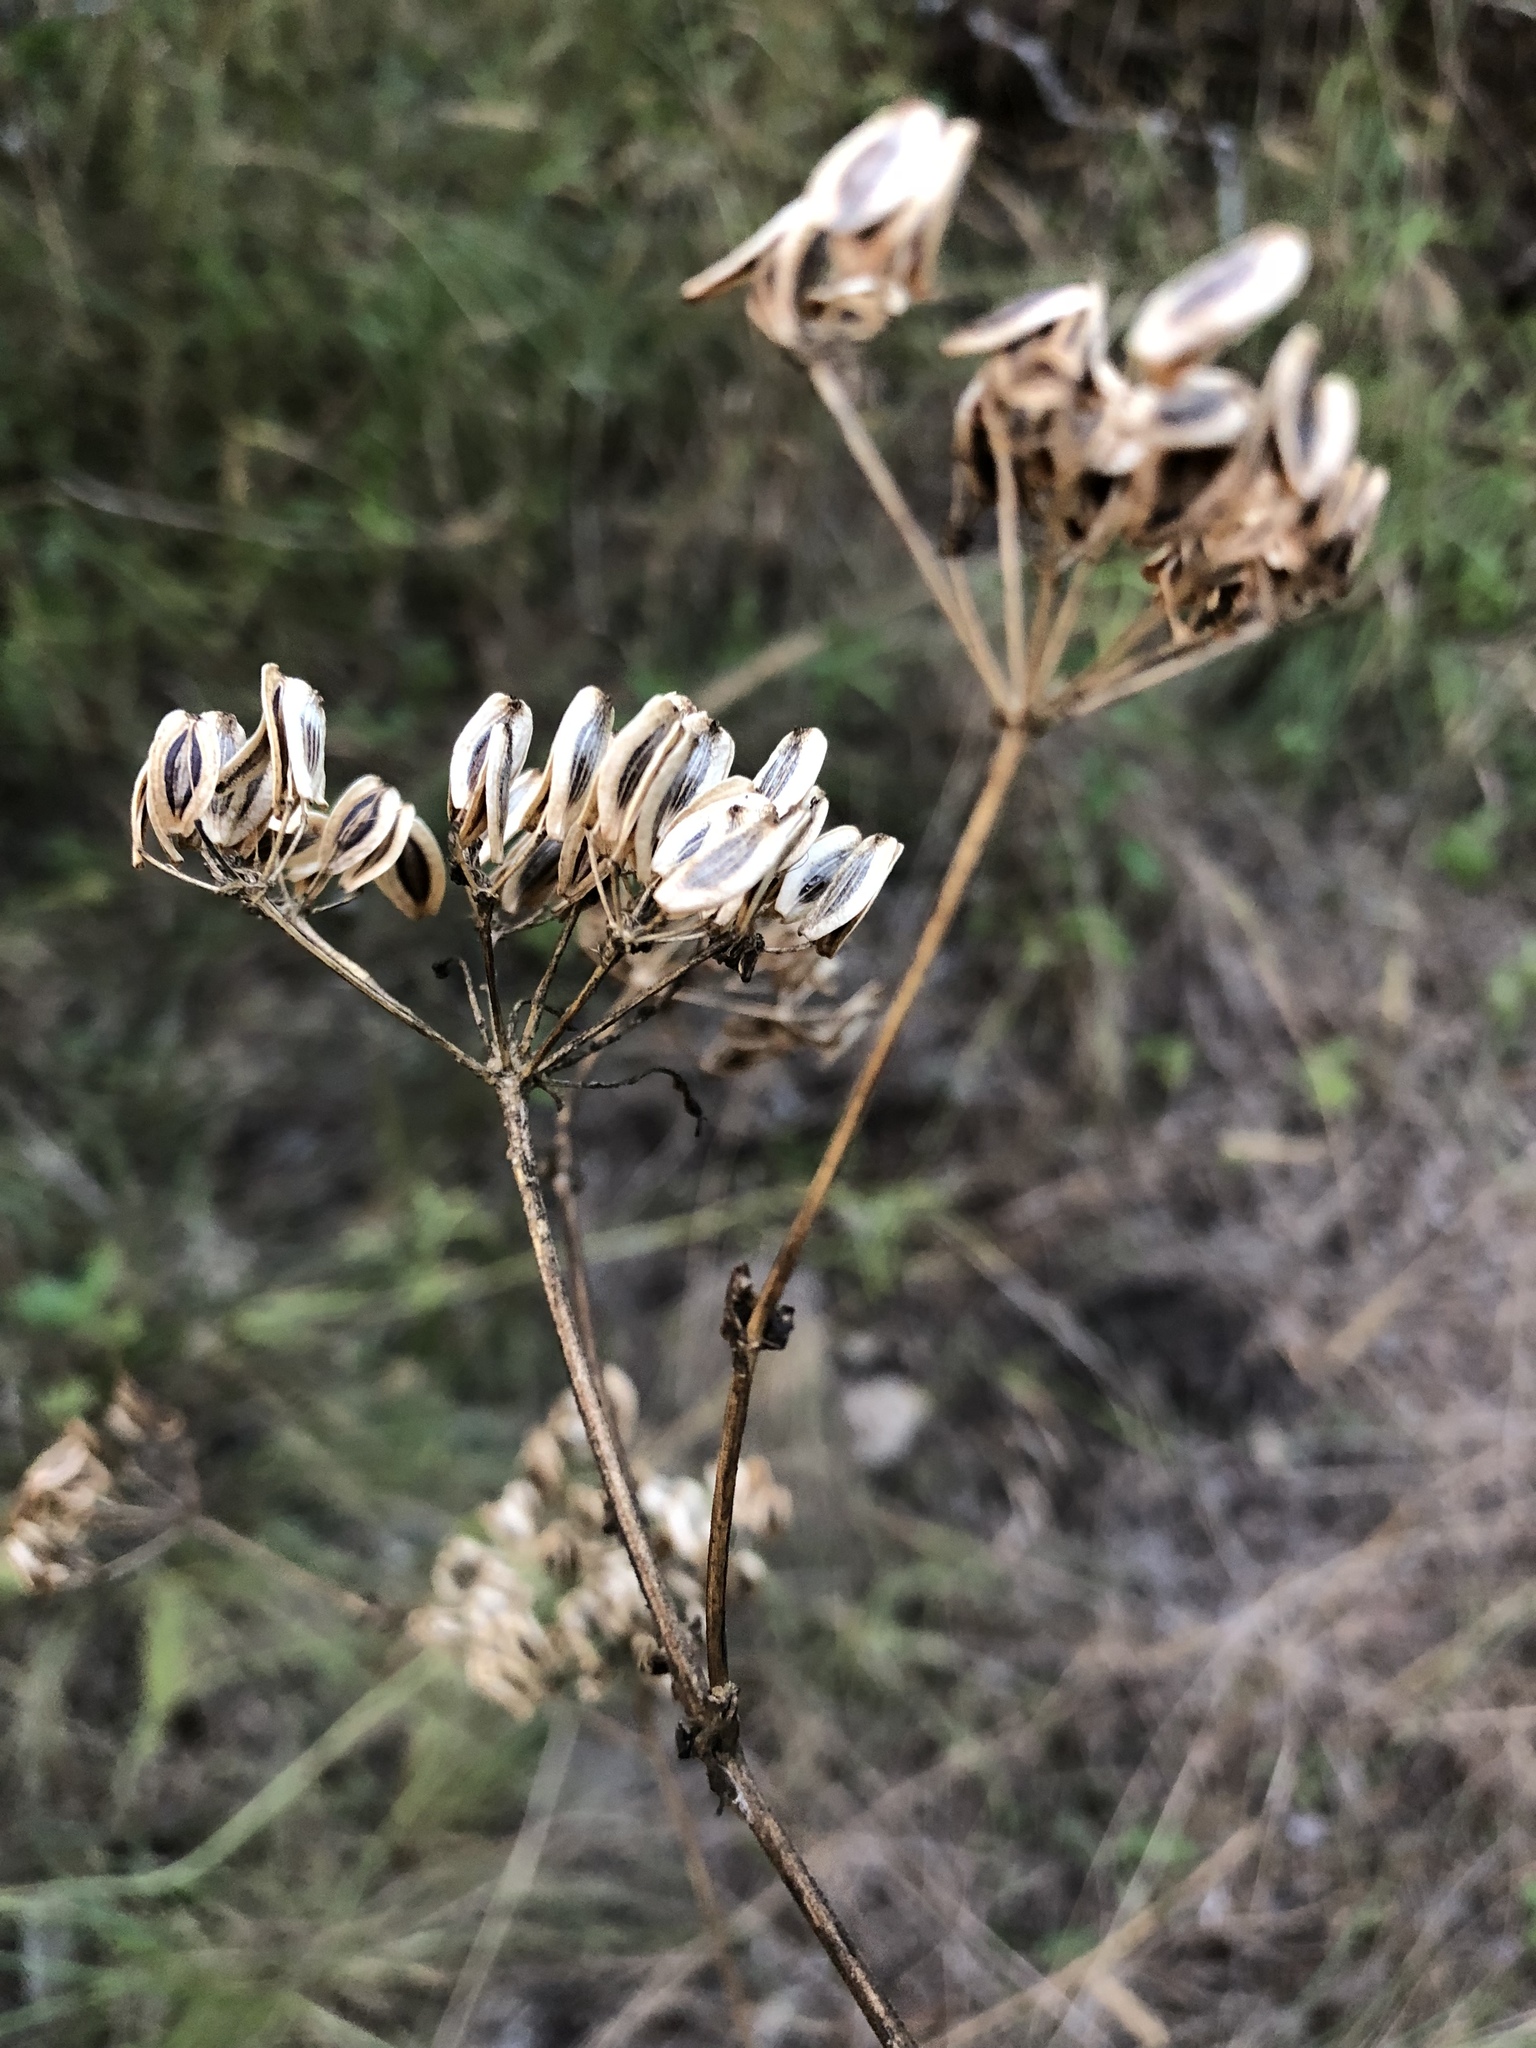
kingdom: Plantae
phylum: Tracheophyta
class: Magnoliopsida
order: Apiales
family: Apiaceae
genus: Polytaenia
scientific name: Polytaenia texana
